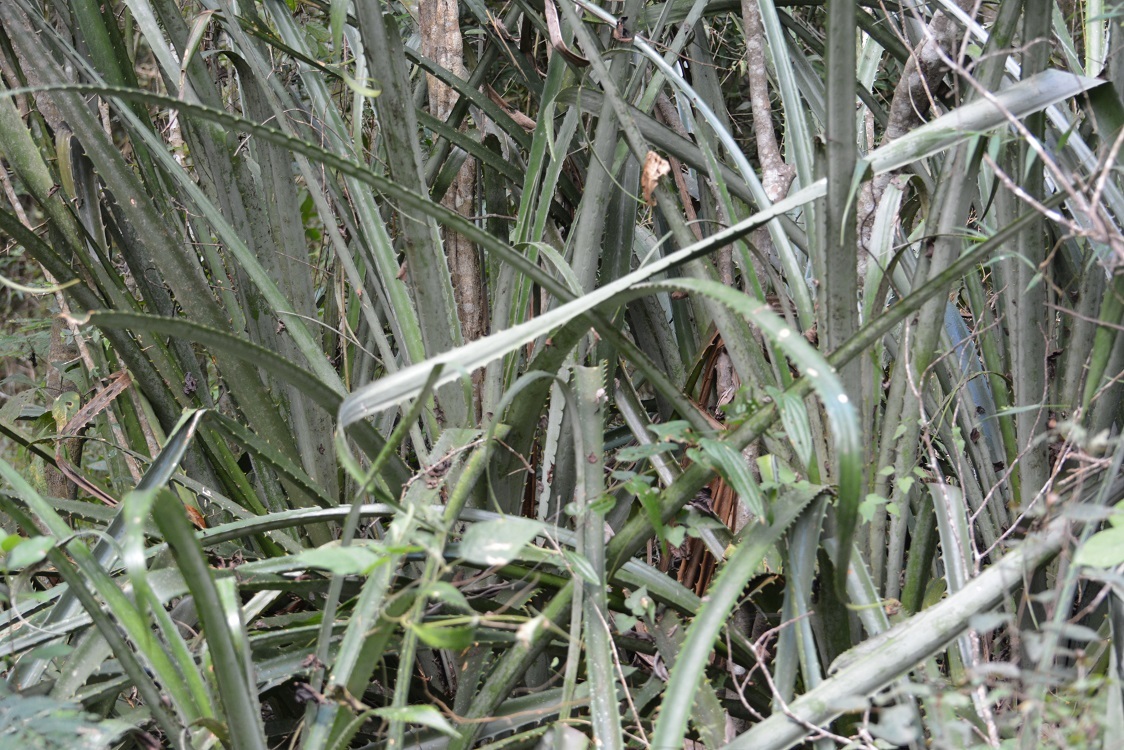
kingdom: Plantae
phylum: Tracheophyta
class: Liliopsida
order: Poales
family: Bromeliaceae
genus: Bromelia
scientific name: Bromelia karatas
